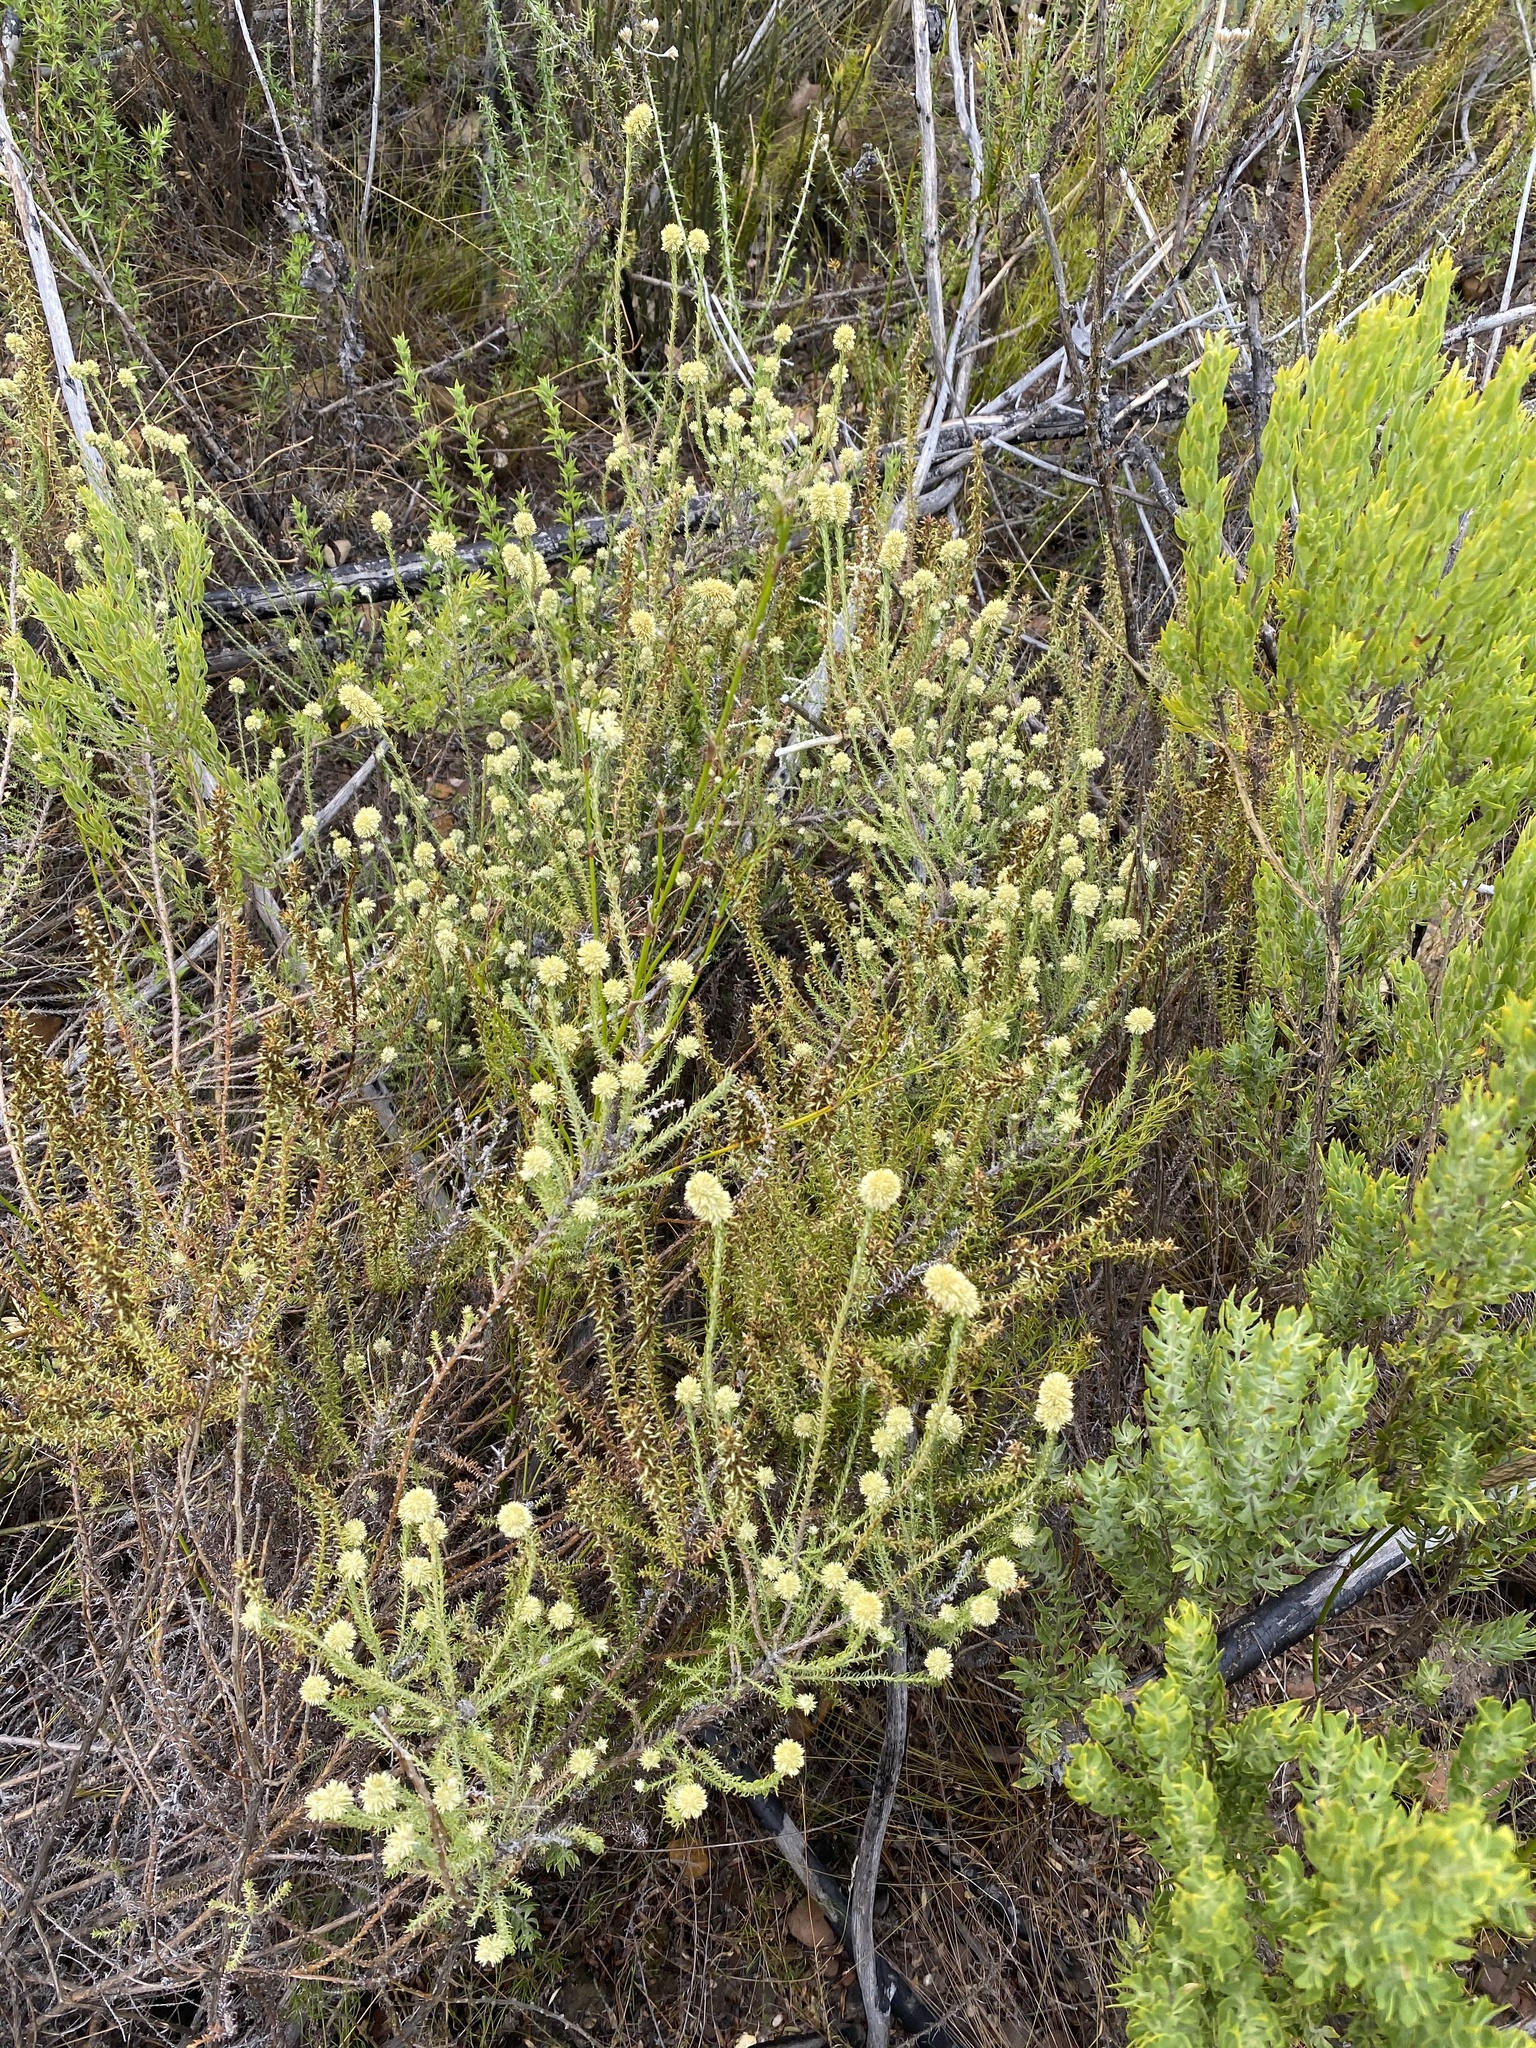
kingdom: Plantae
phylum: Tracheophyta
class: Magnoliopsida
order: Asterales
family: Asteraceae
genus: Seriphium
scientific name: Seriphium spirale
